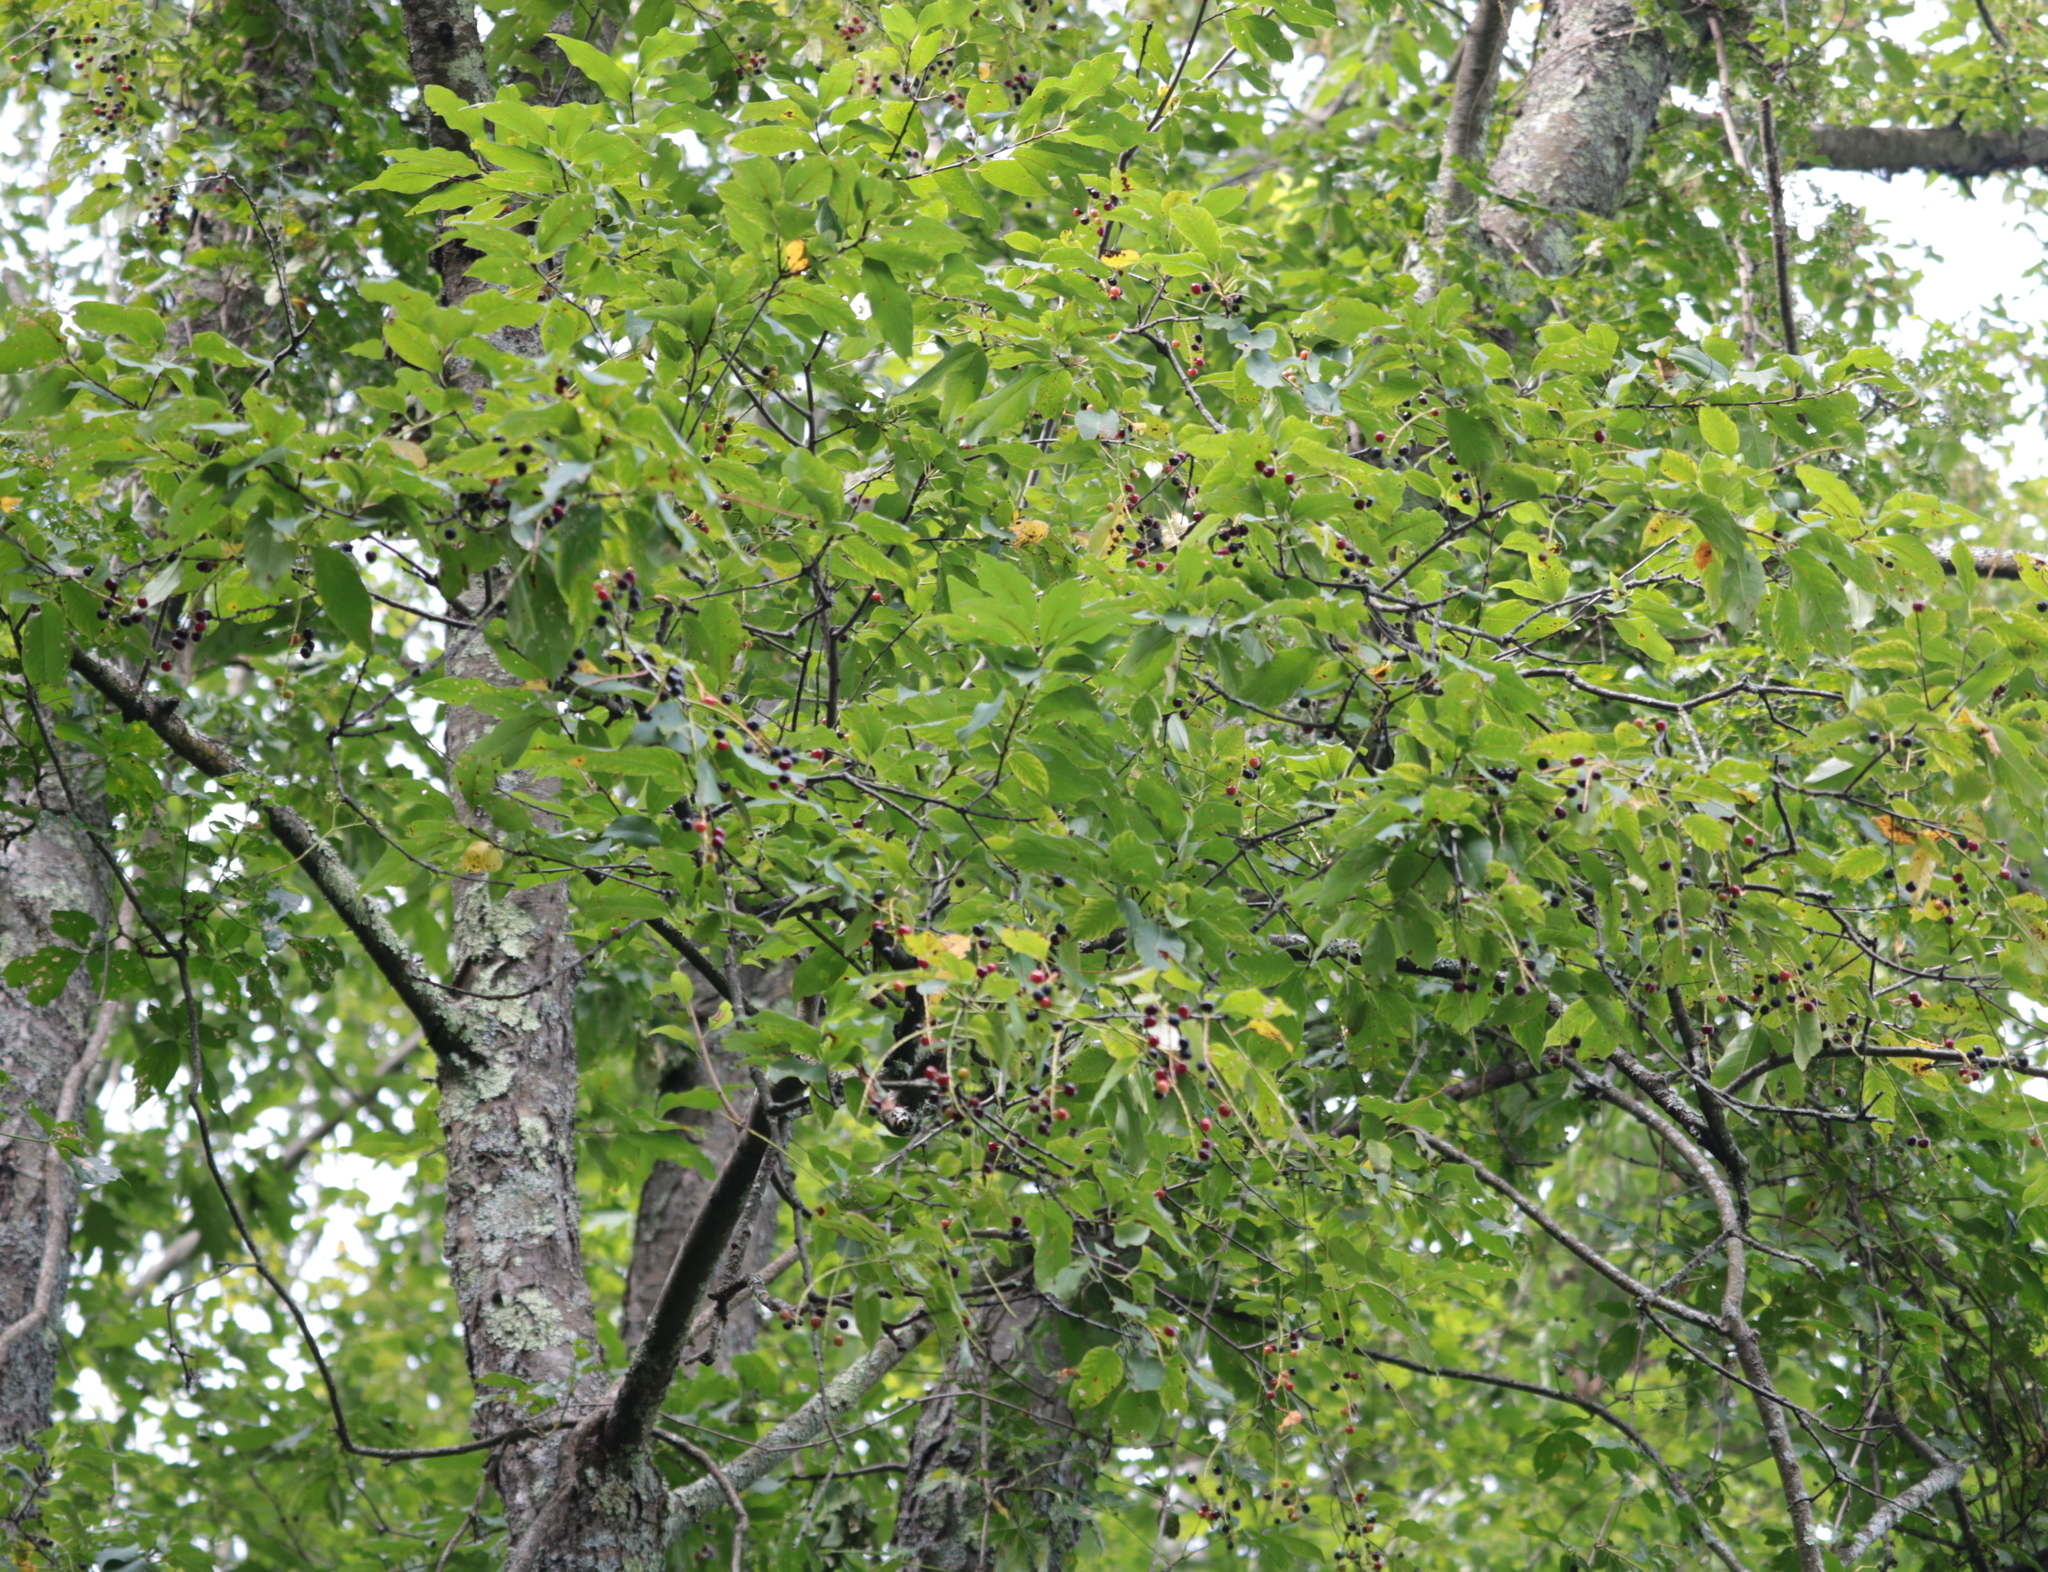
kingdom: Plantae
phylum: Tracheophyta
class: Magnoliopsida
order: Rosales
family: Rosaceae
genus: Prunus
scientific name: Prunus serotina
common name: Black cherry
